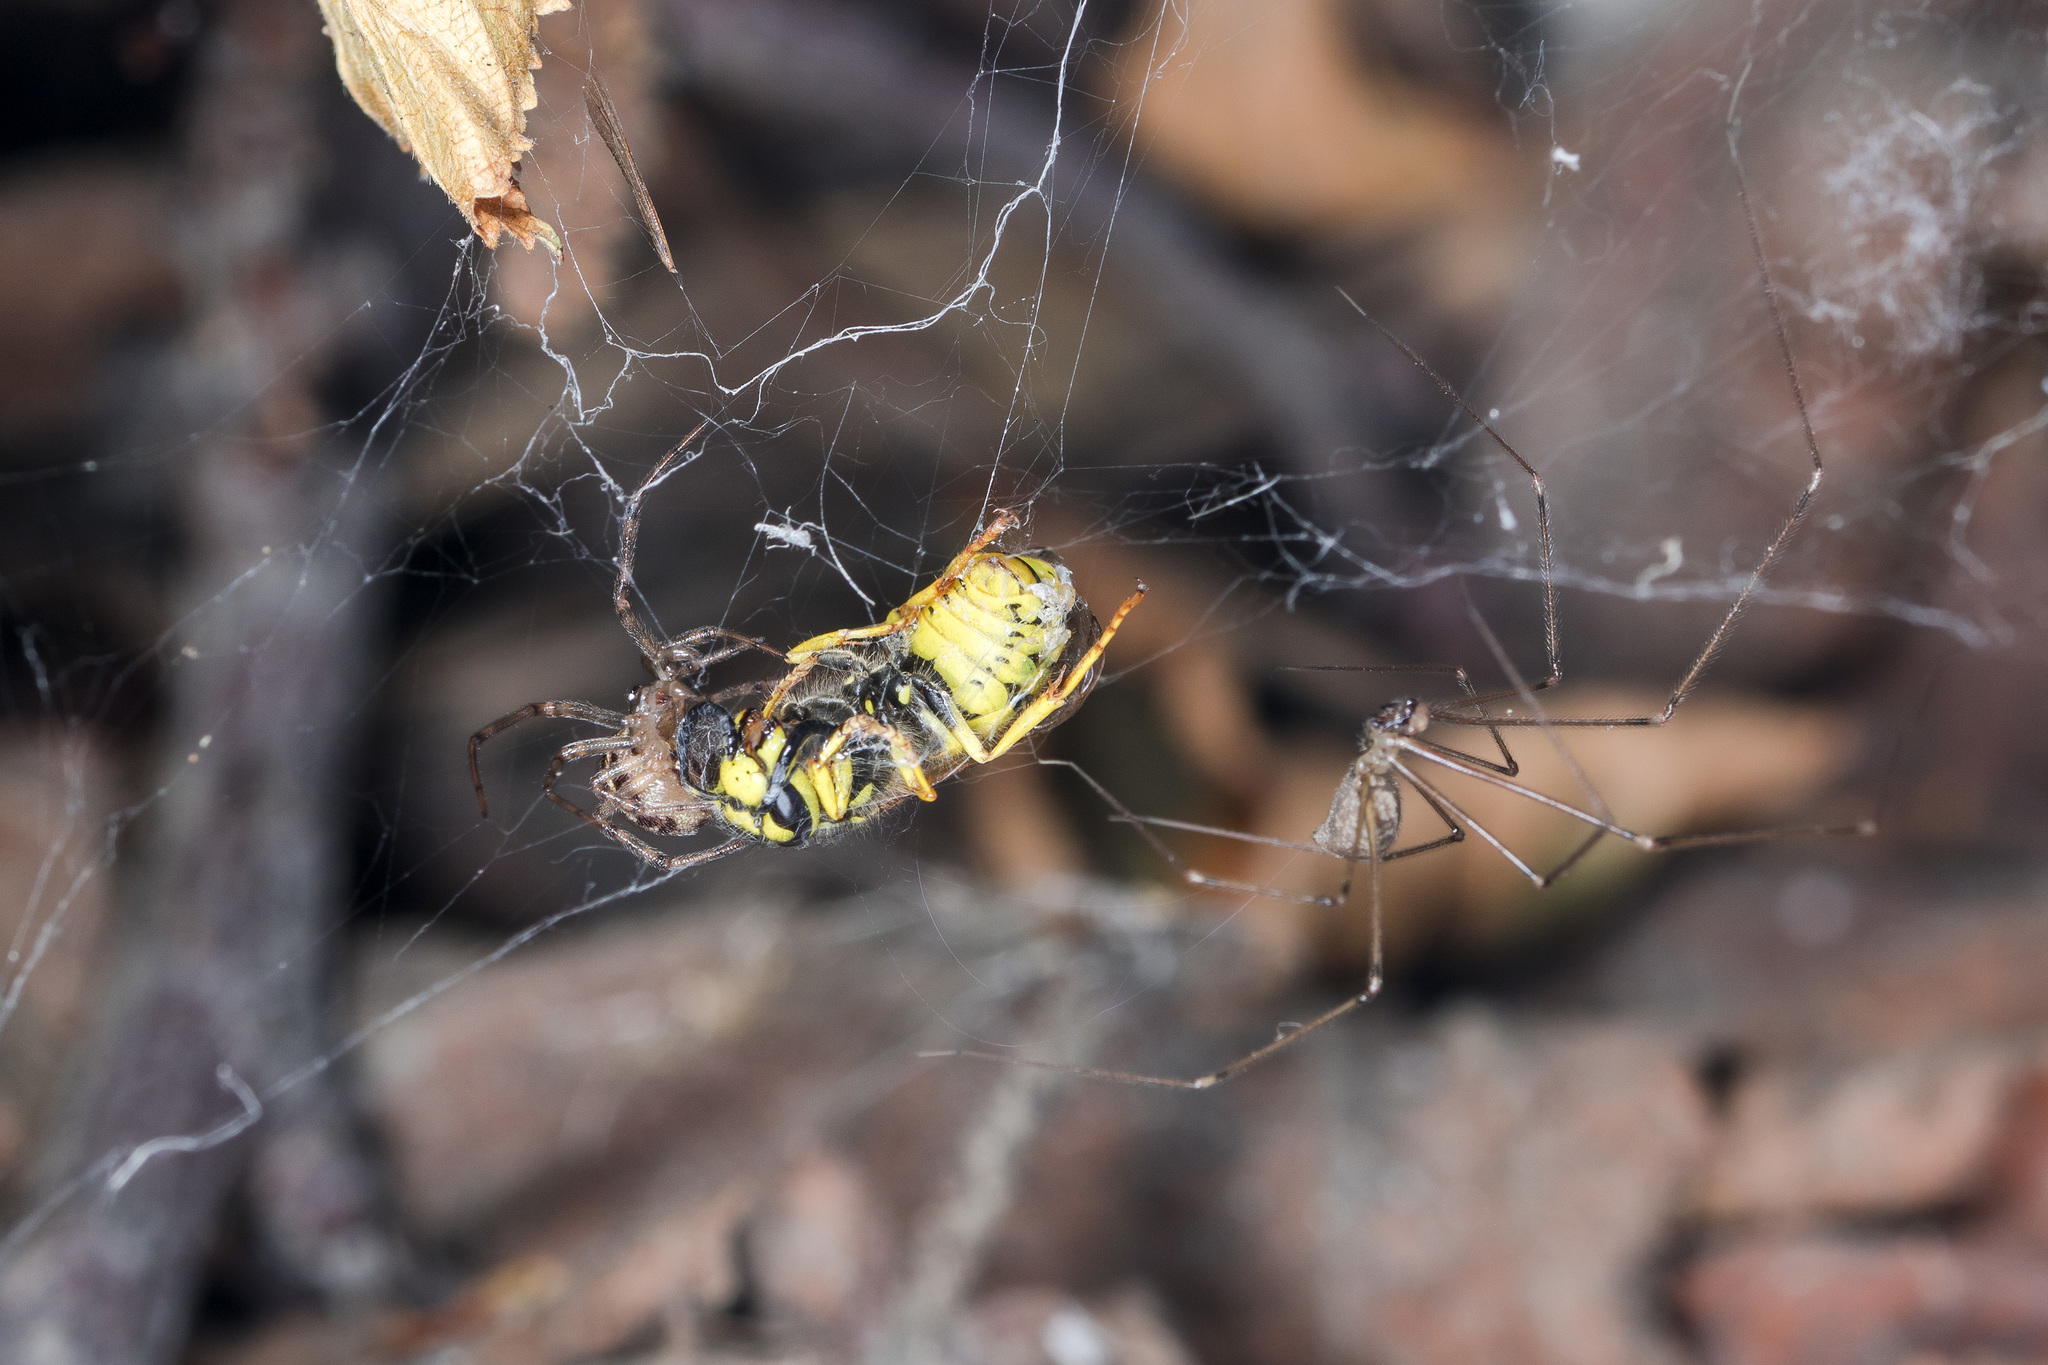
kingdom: Animalia
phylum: Arthropoda
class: Arachnida
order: Araneae
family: Pholcidae
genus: Pholcus
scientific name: Pholcus manueli
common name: Cellar spider
